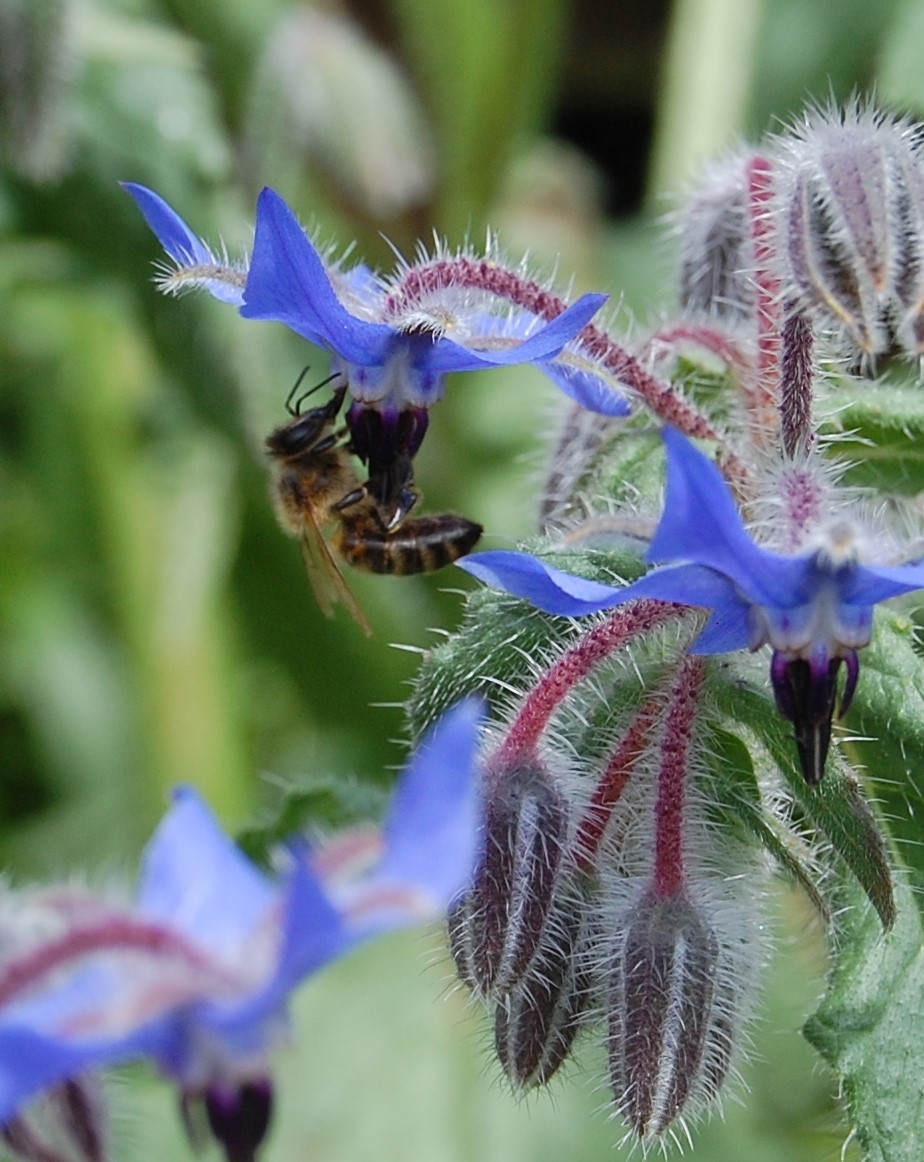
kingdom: Animalia
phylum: Arthropoda
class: Insecta
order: Hymenoptera
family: Apidae
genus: Apis
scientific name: Apis mellifera
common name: Honey bee
